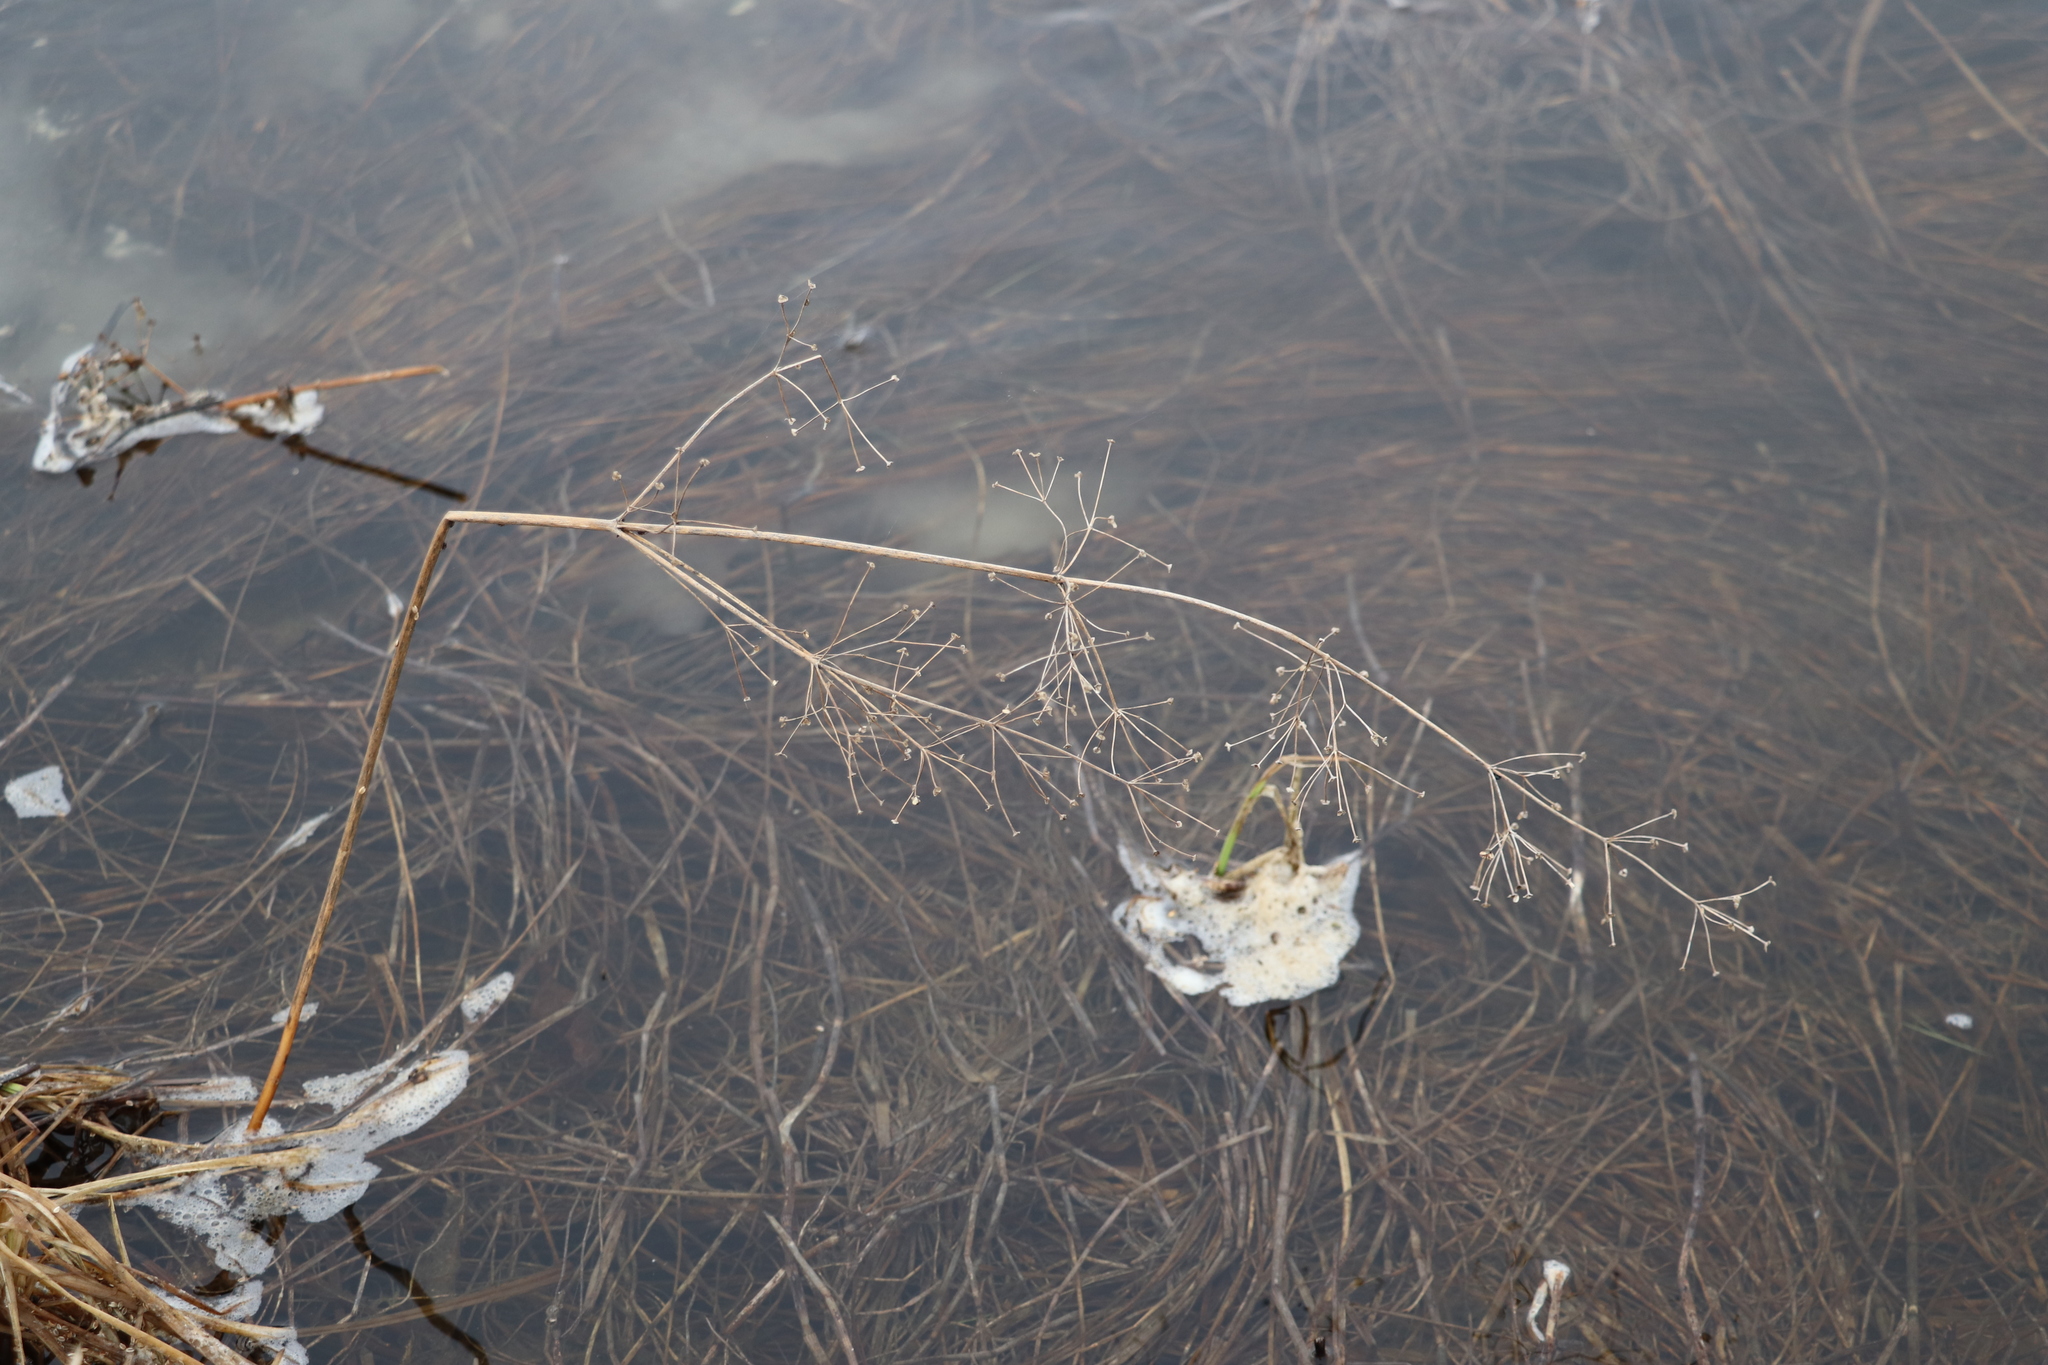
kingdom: Plantae
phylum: Tracheophyta
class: Liliopsida
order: Alismatales
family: Alismataceae
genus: Alisma
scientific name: Alisma plantago-aquatica
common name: Water-plantain
